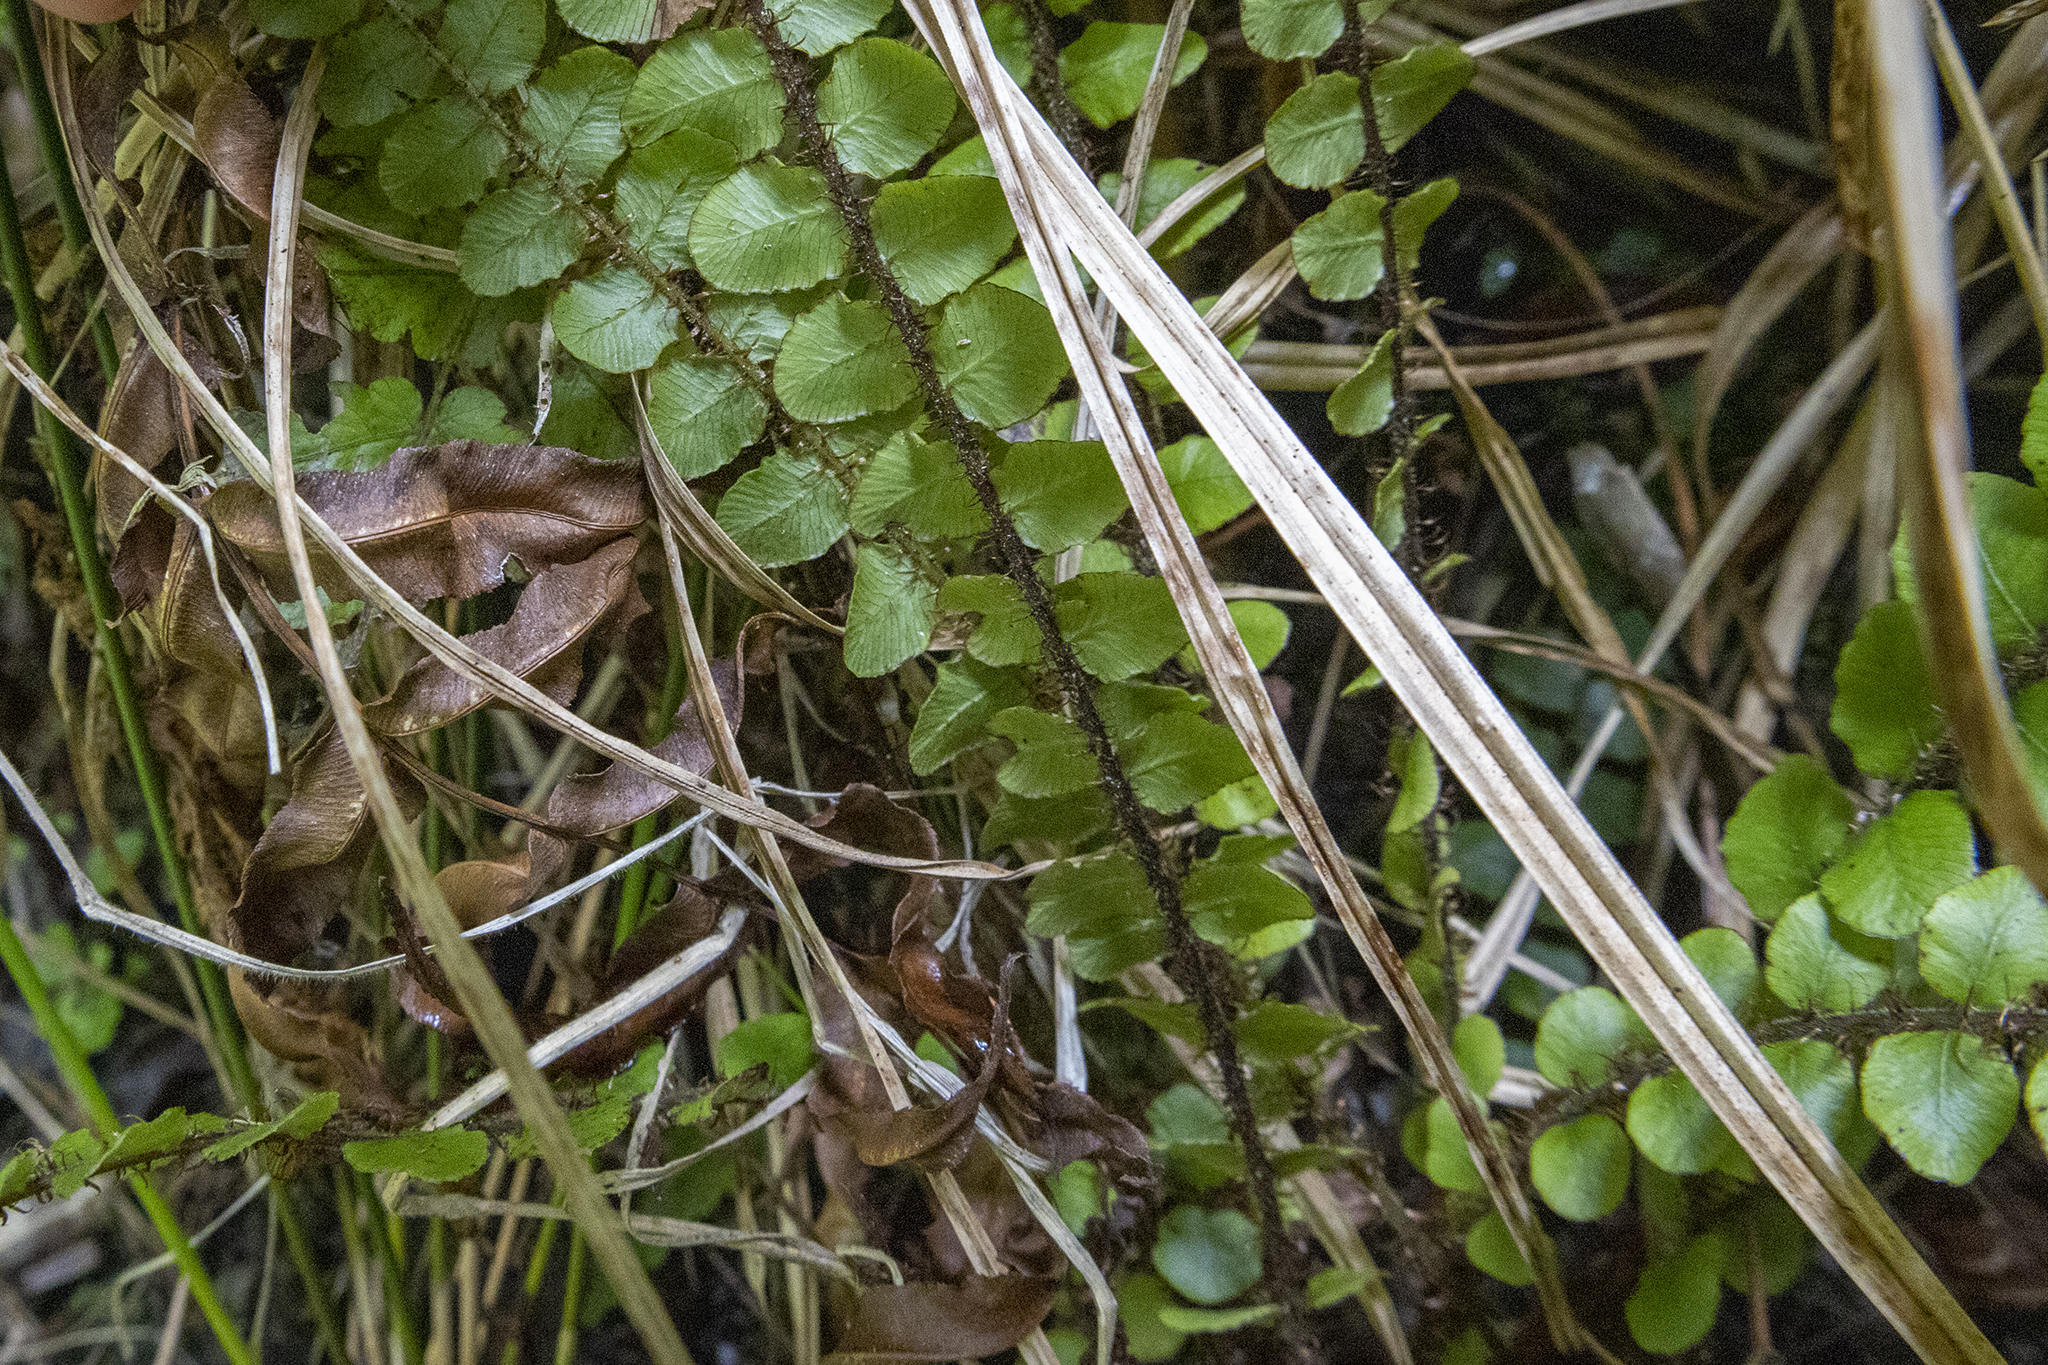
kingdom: Plantae
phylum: Tracheophyta
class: Polypodiopsida
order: Polypodiales
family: Blechnaceae
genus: Cranfillia
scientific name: Cranfillia fluviatilis
